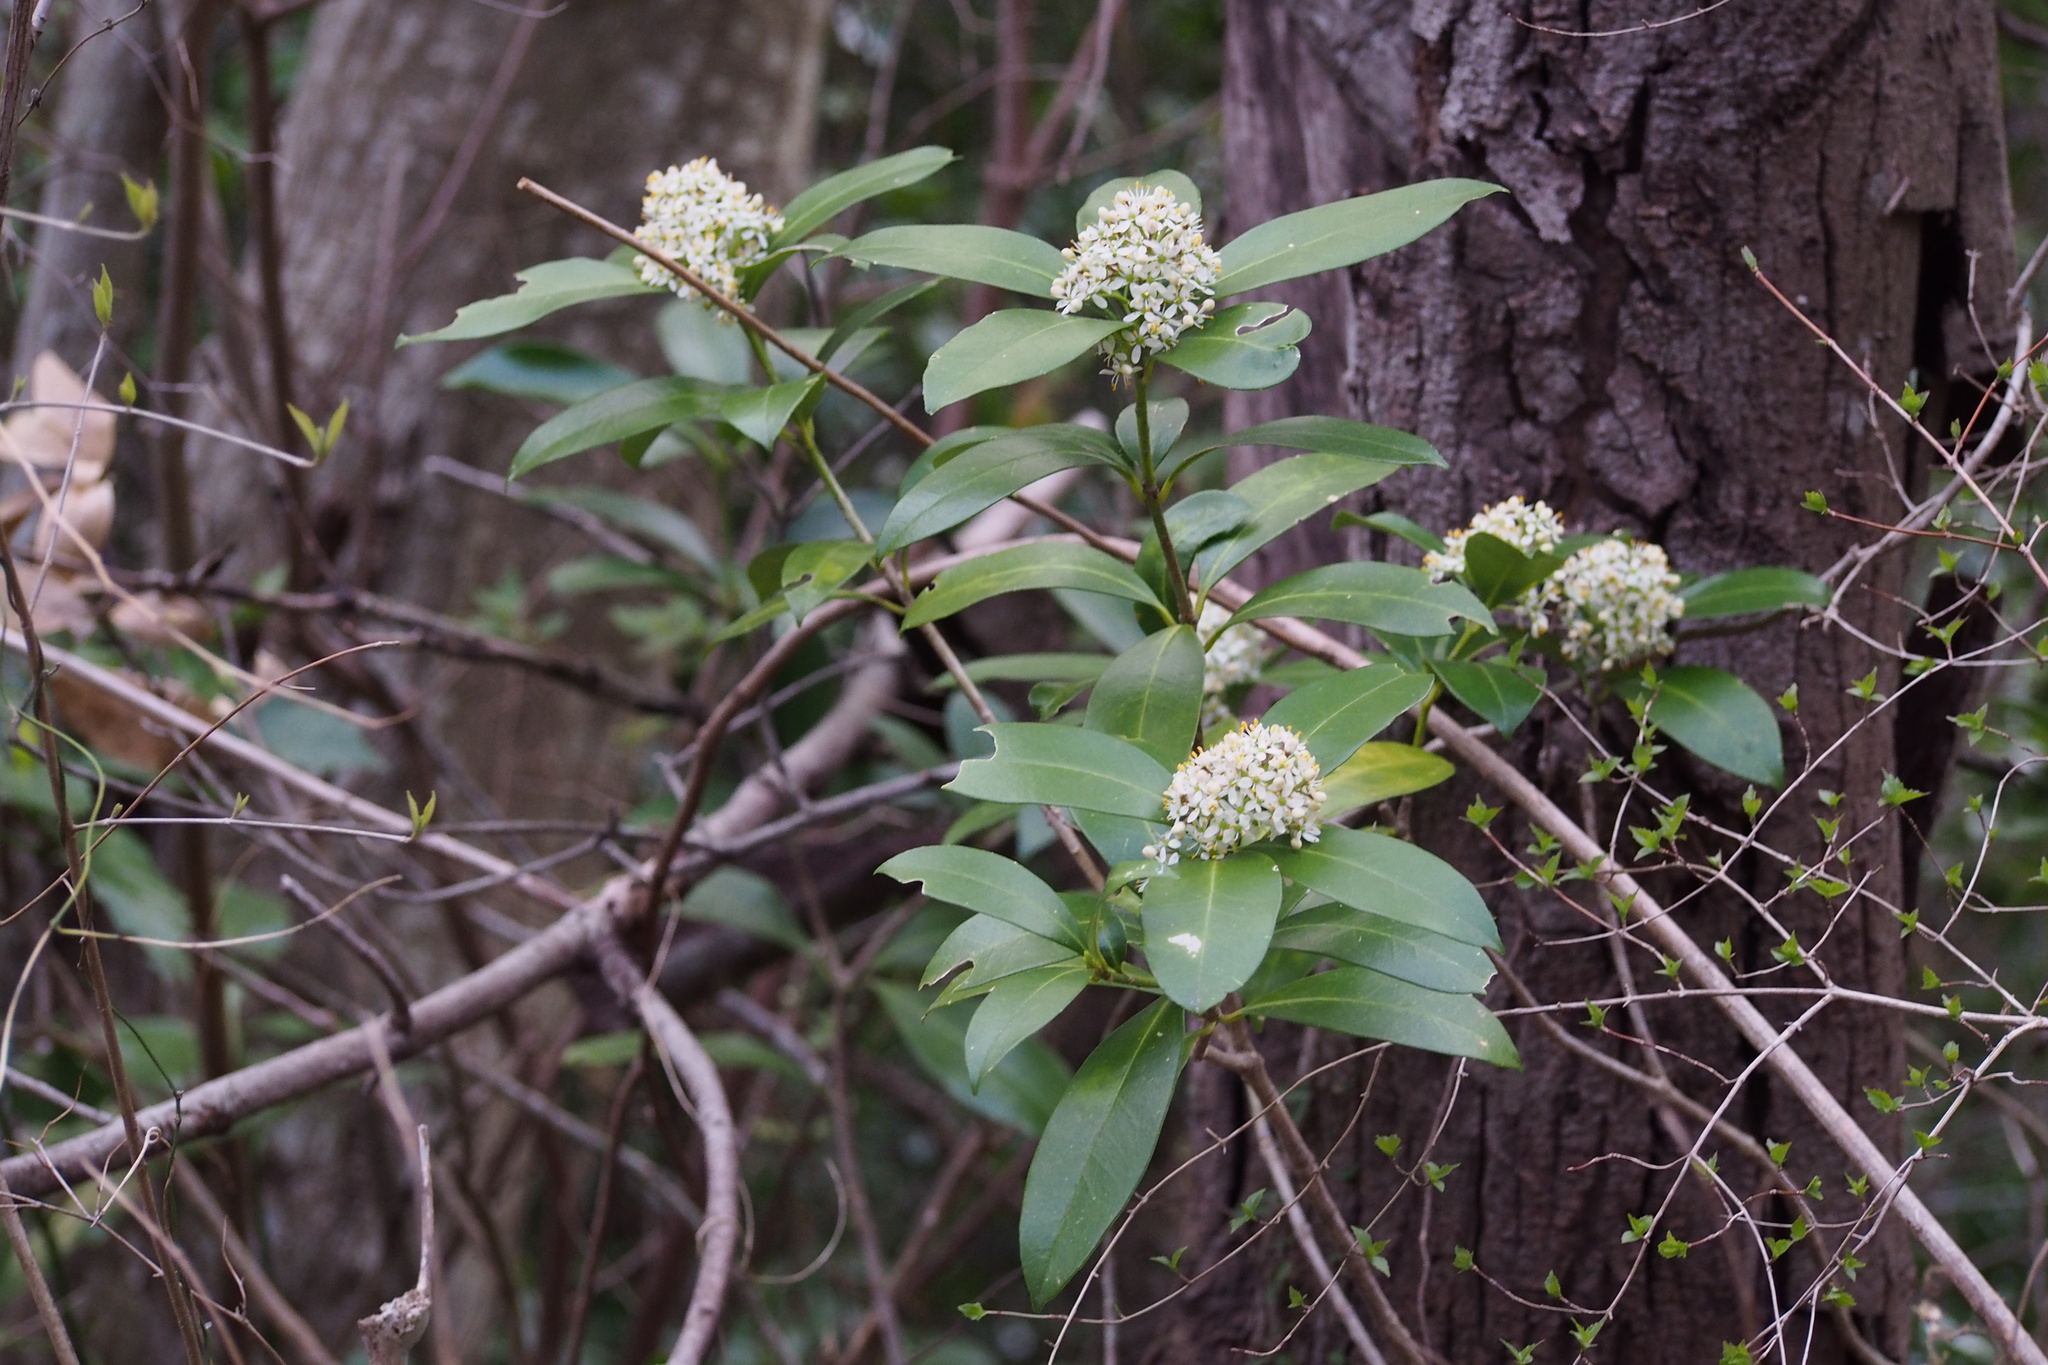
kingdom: Plantae
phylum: Tracheophyta
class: Magnoliopsida
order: Sapindales
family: Rutaceae
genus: Skimmia
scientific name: Skimmia japonica
